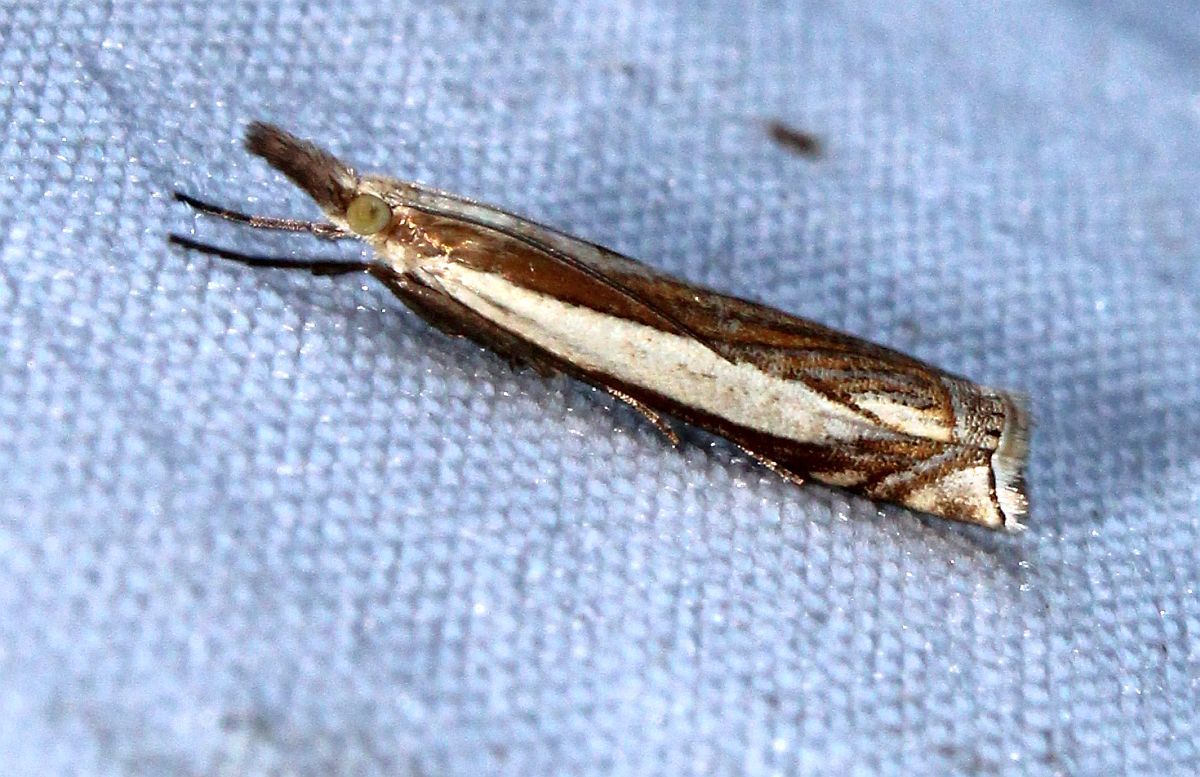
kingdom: Animalia
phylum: Arthropoda
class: Insecta
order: Lepidoptera
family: Crambidae
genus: Crambus
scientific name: Crambus pascuella
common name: Inlaid grass-veneer
